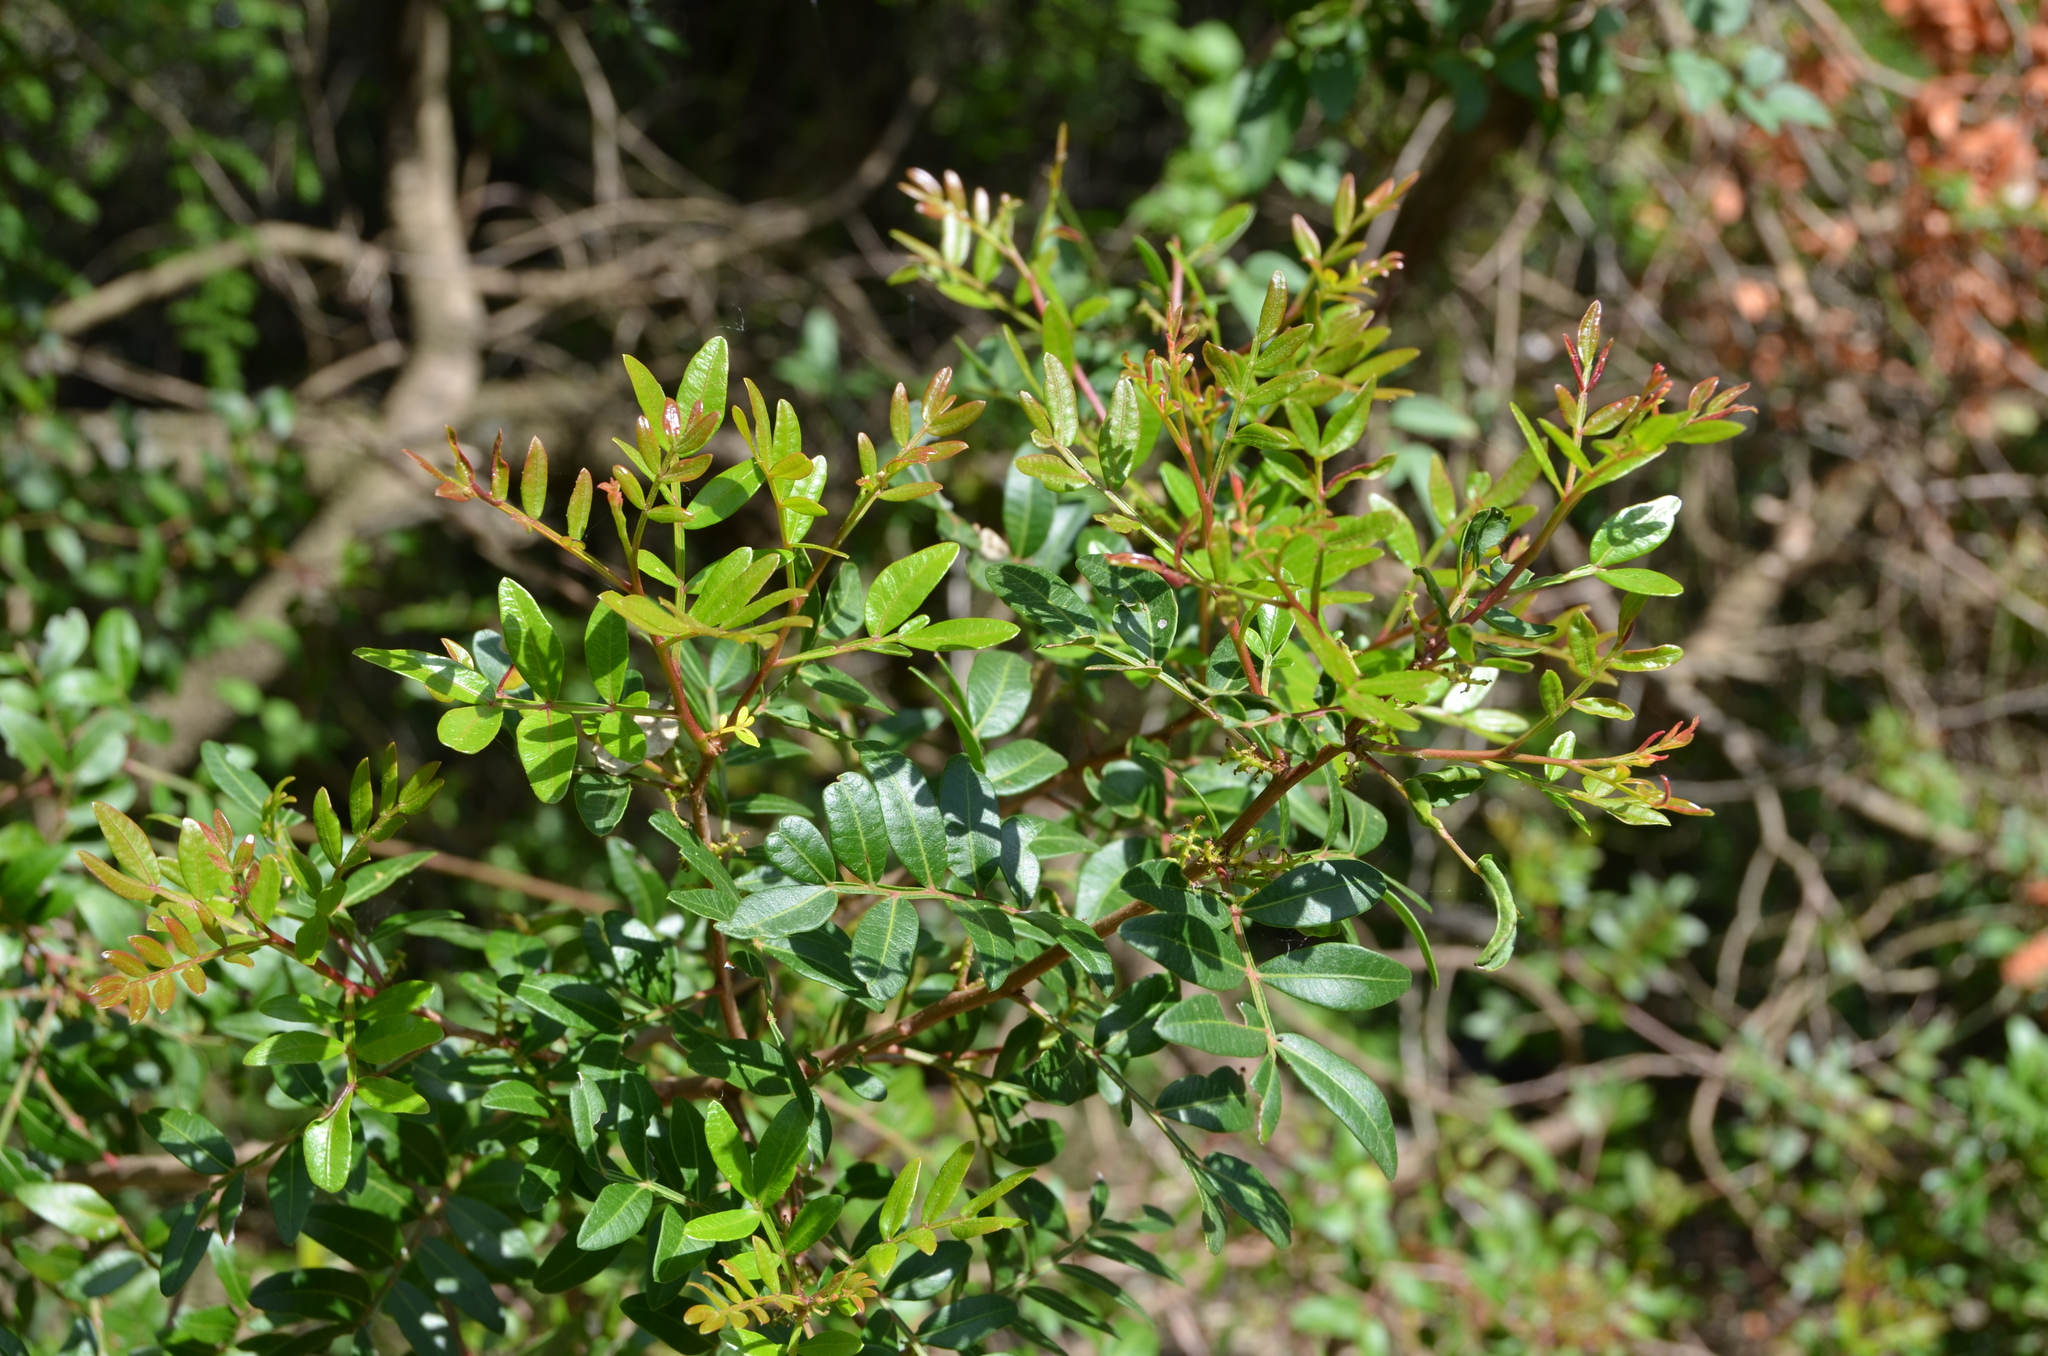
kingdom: Plantae
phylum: Tracheophyta
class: Magnoliopsida
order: Sapindales
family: Anacardiaceae
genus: Pistacia
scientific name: Pistacia lentiscus
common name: Lentisk
